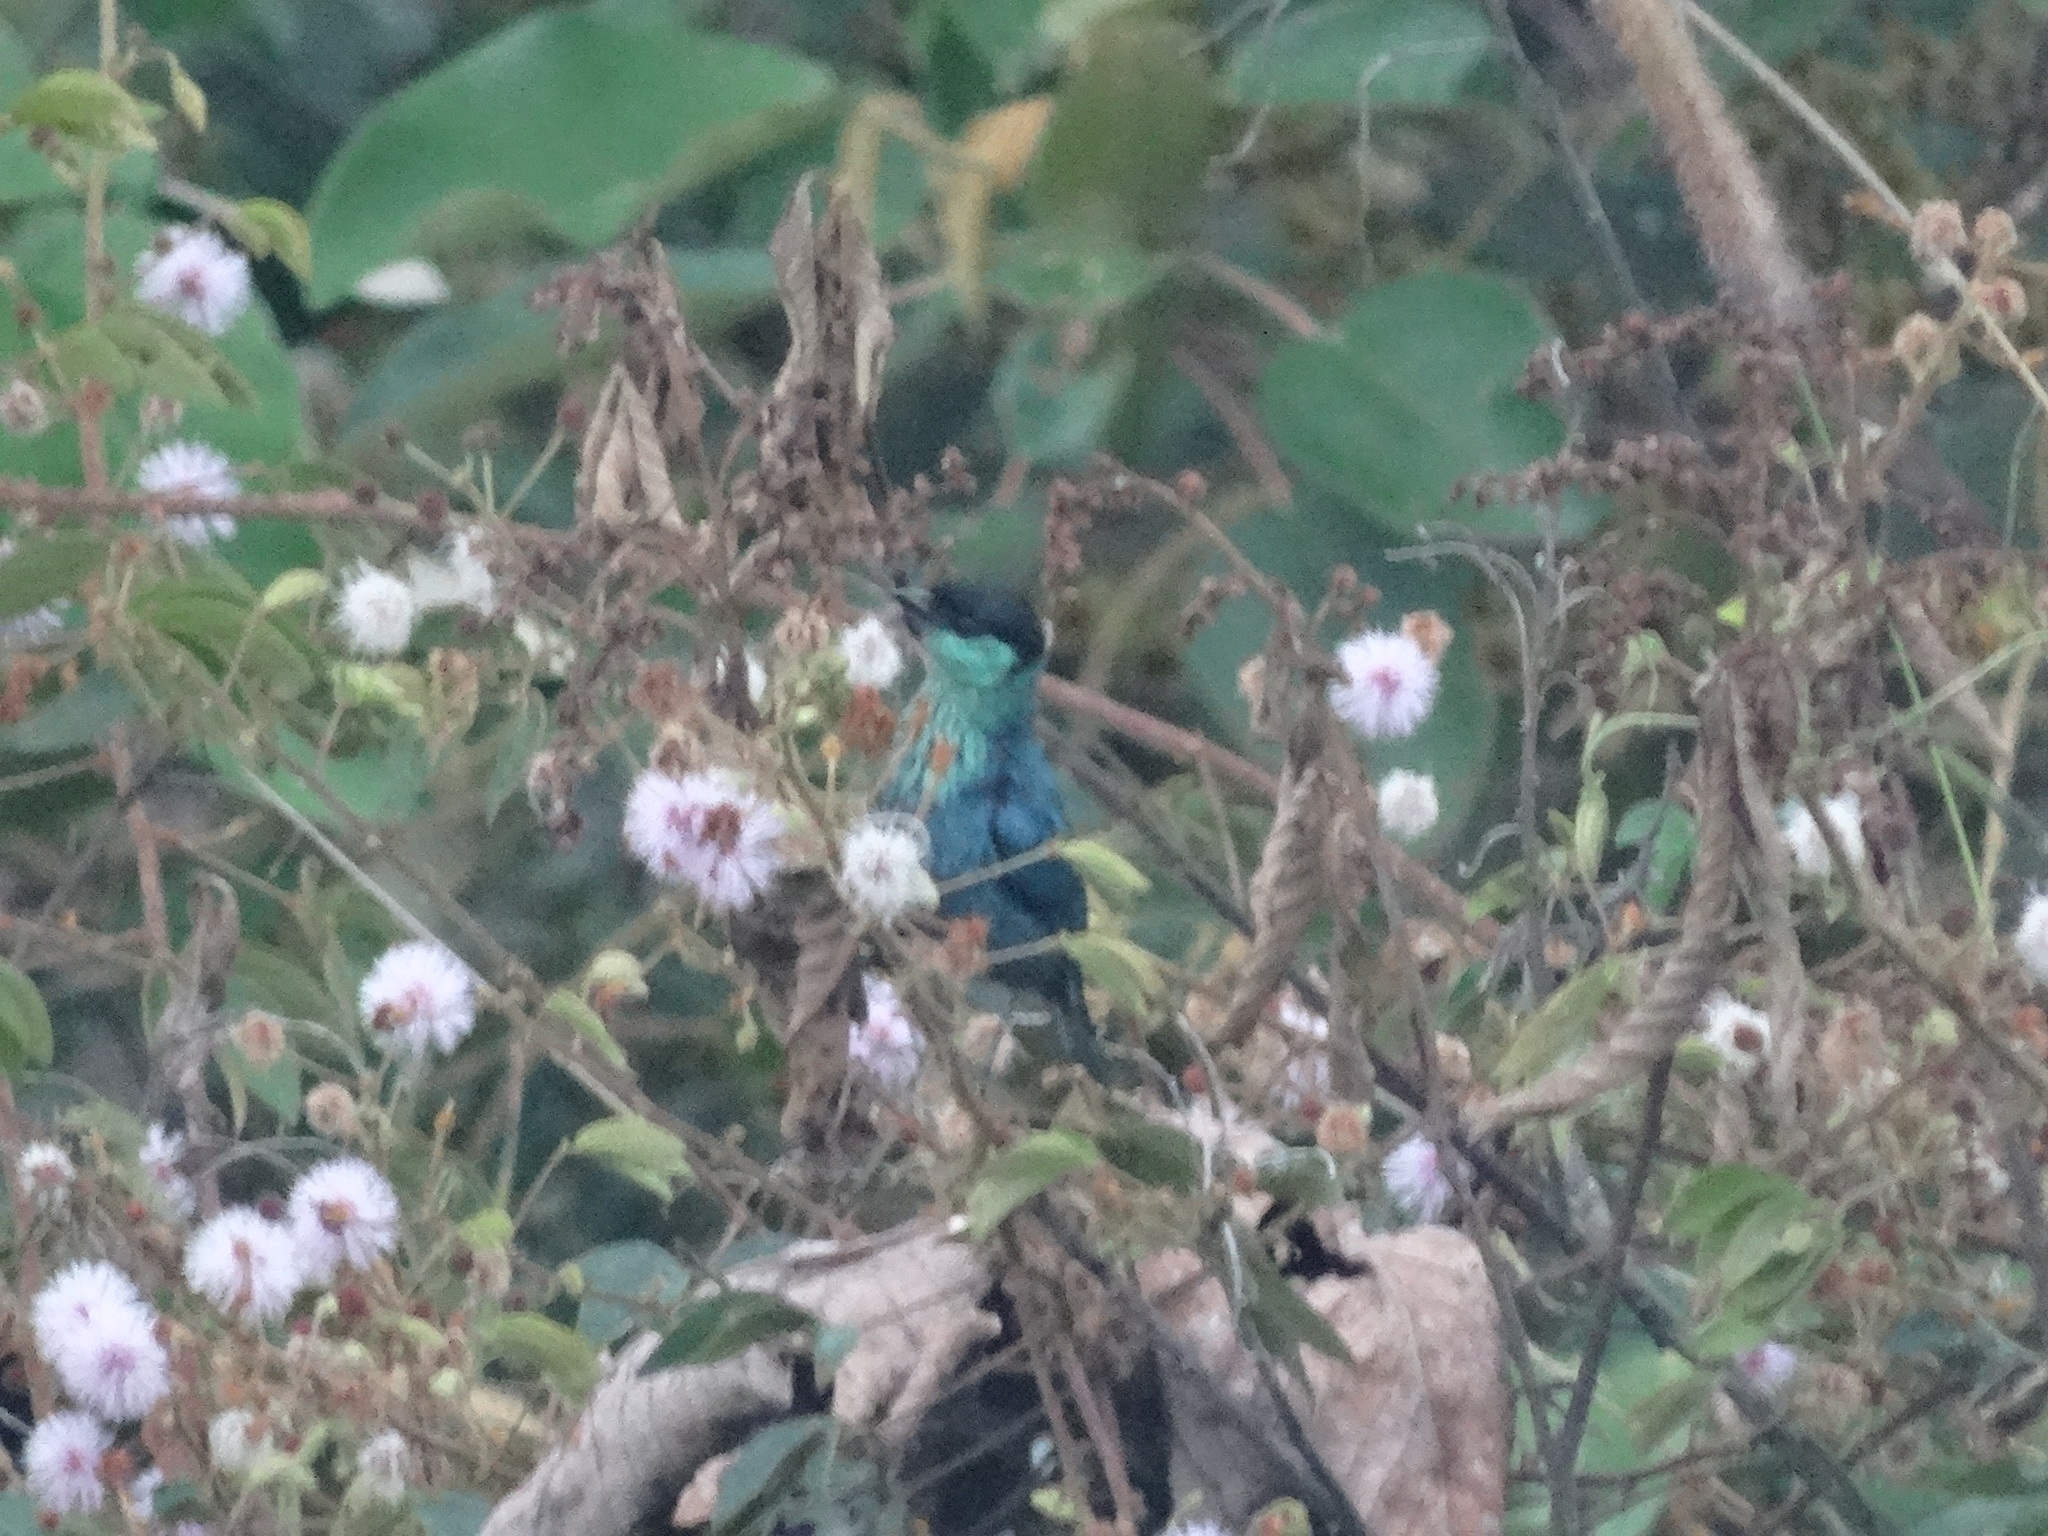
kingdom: Animalia
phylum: Chordata
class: Aves
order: Passeriformes
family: Thraupidae
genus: Stilpnia
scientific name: Stilpnia heinei
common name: Black-capped tanager
